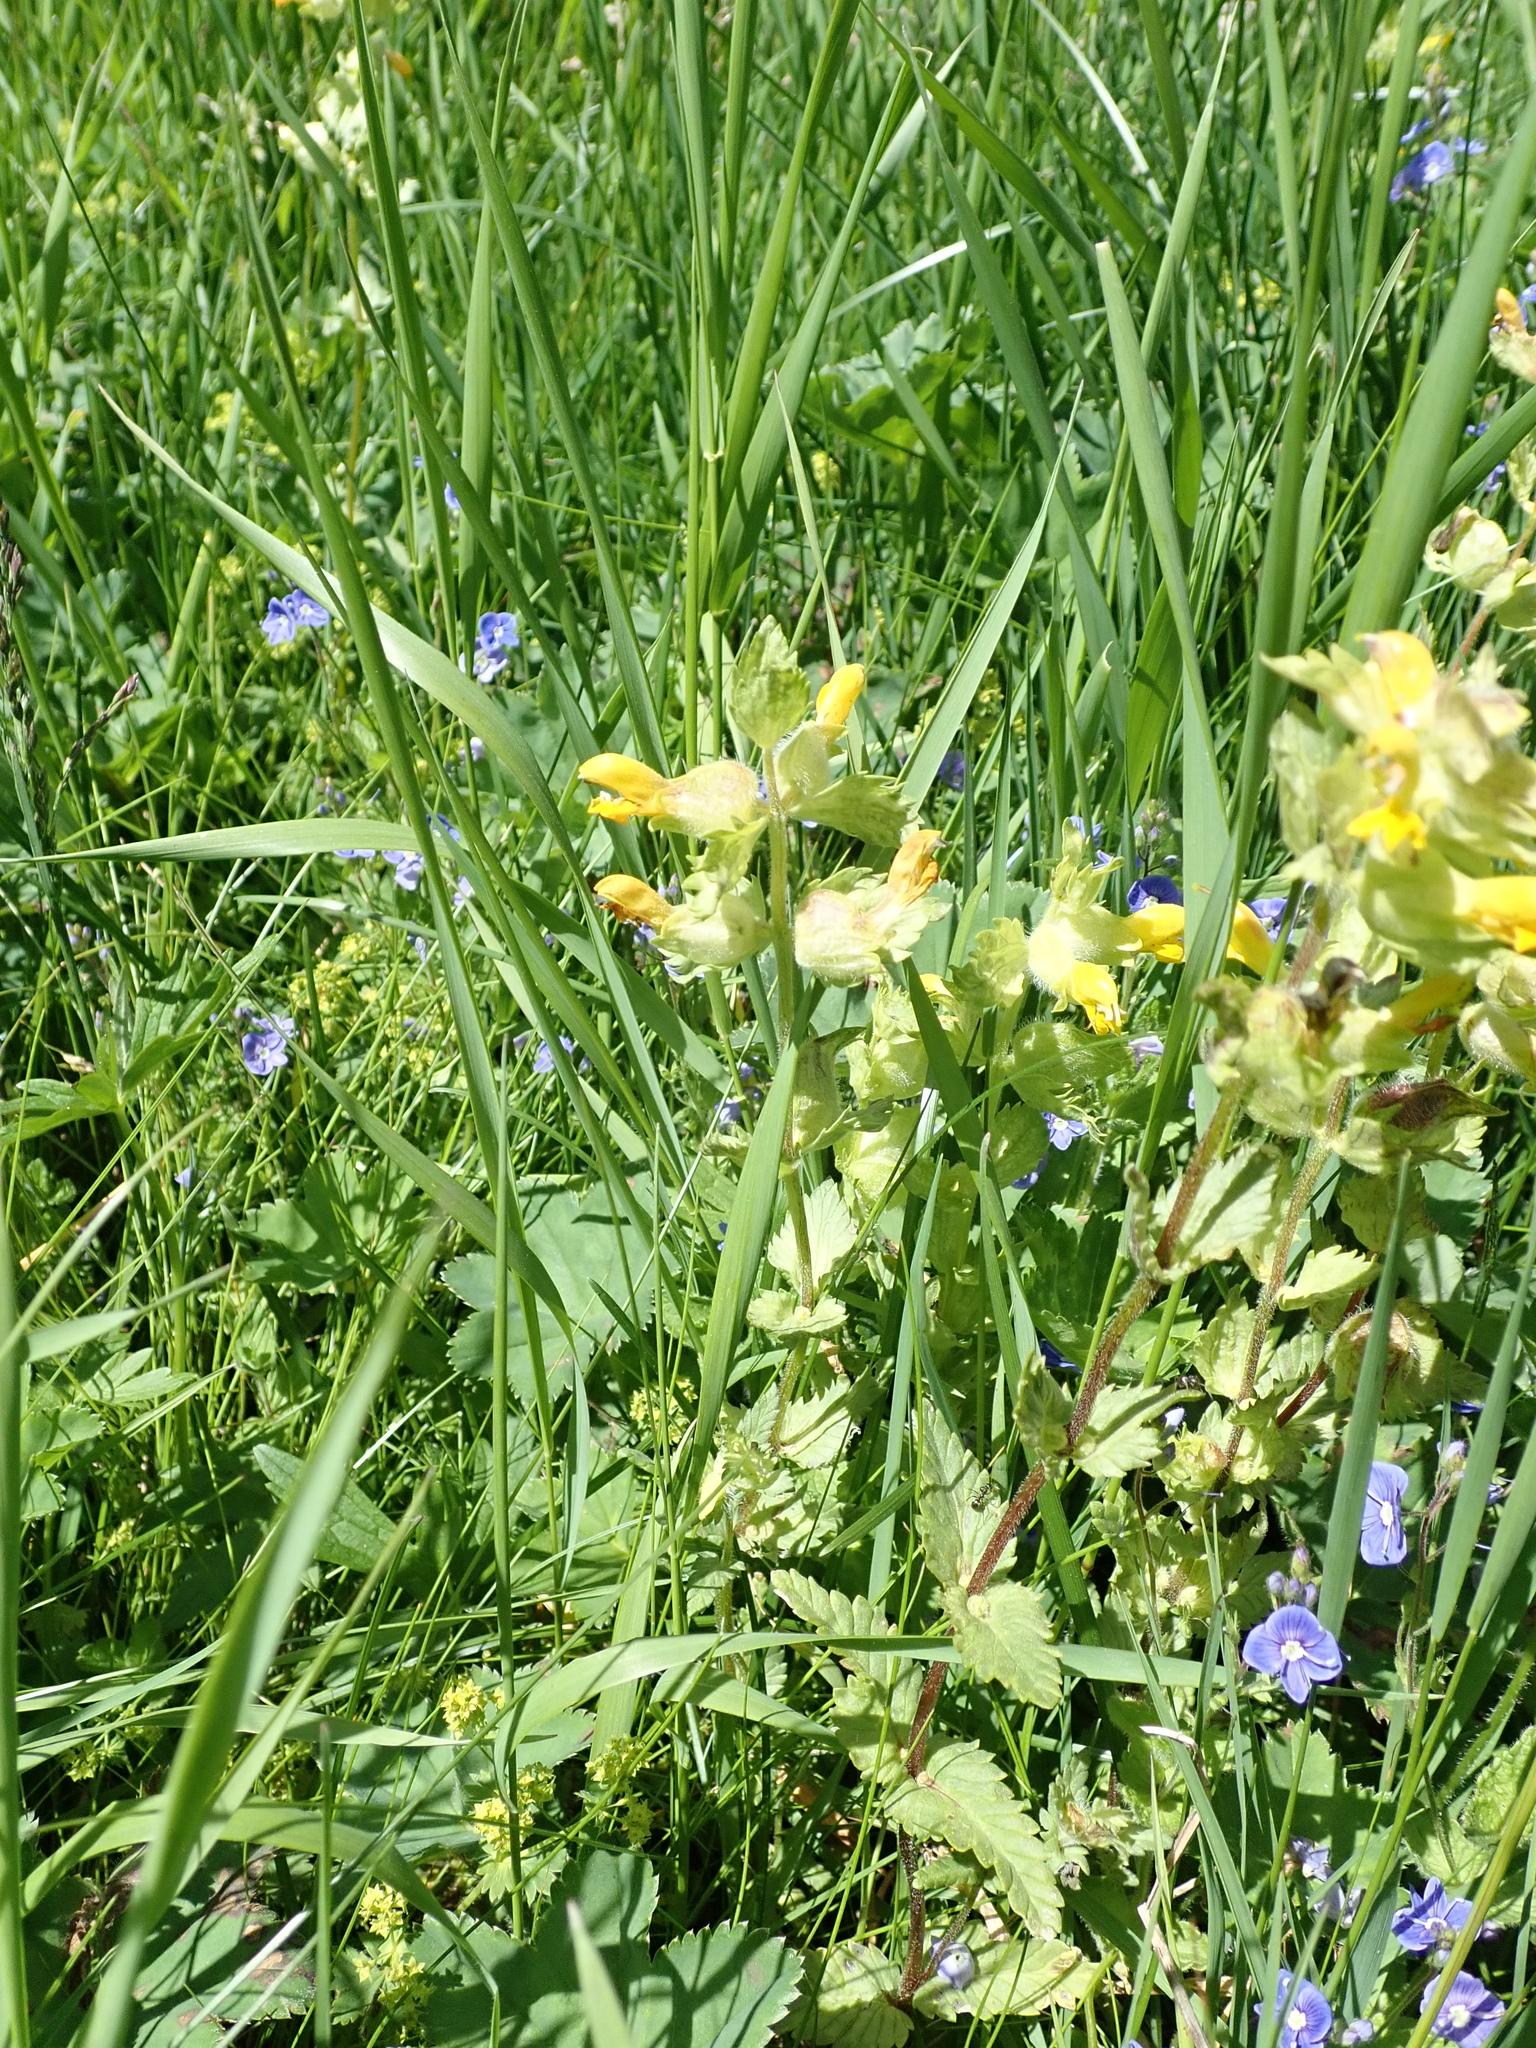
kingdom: Plantae
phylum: Tracheophyta
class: Magnoliopsida
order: Lamiales
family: Orobanchaceae
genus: Rhinanthus
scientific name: Rhinanthus alectorolophus
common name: Greater yellow-rattle
